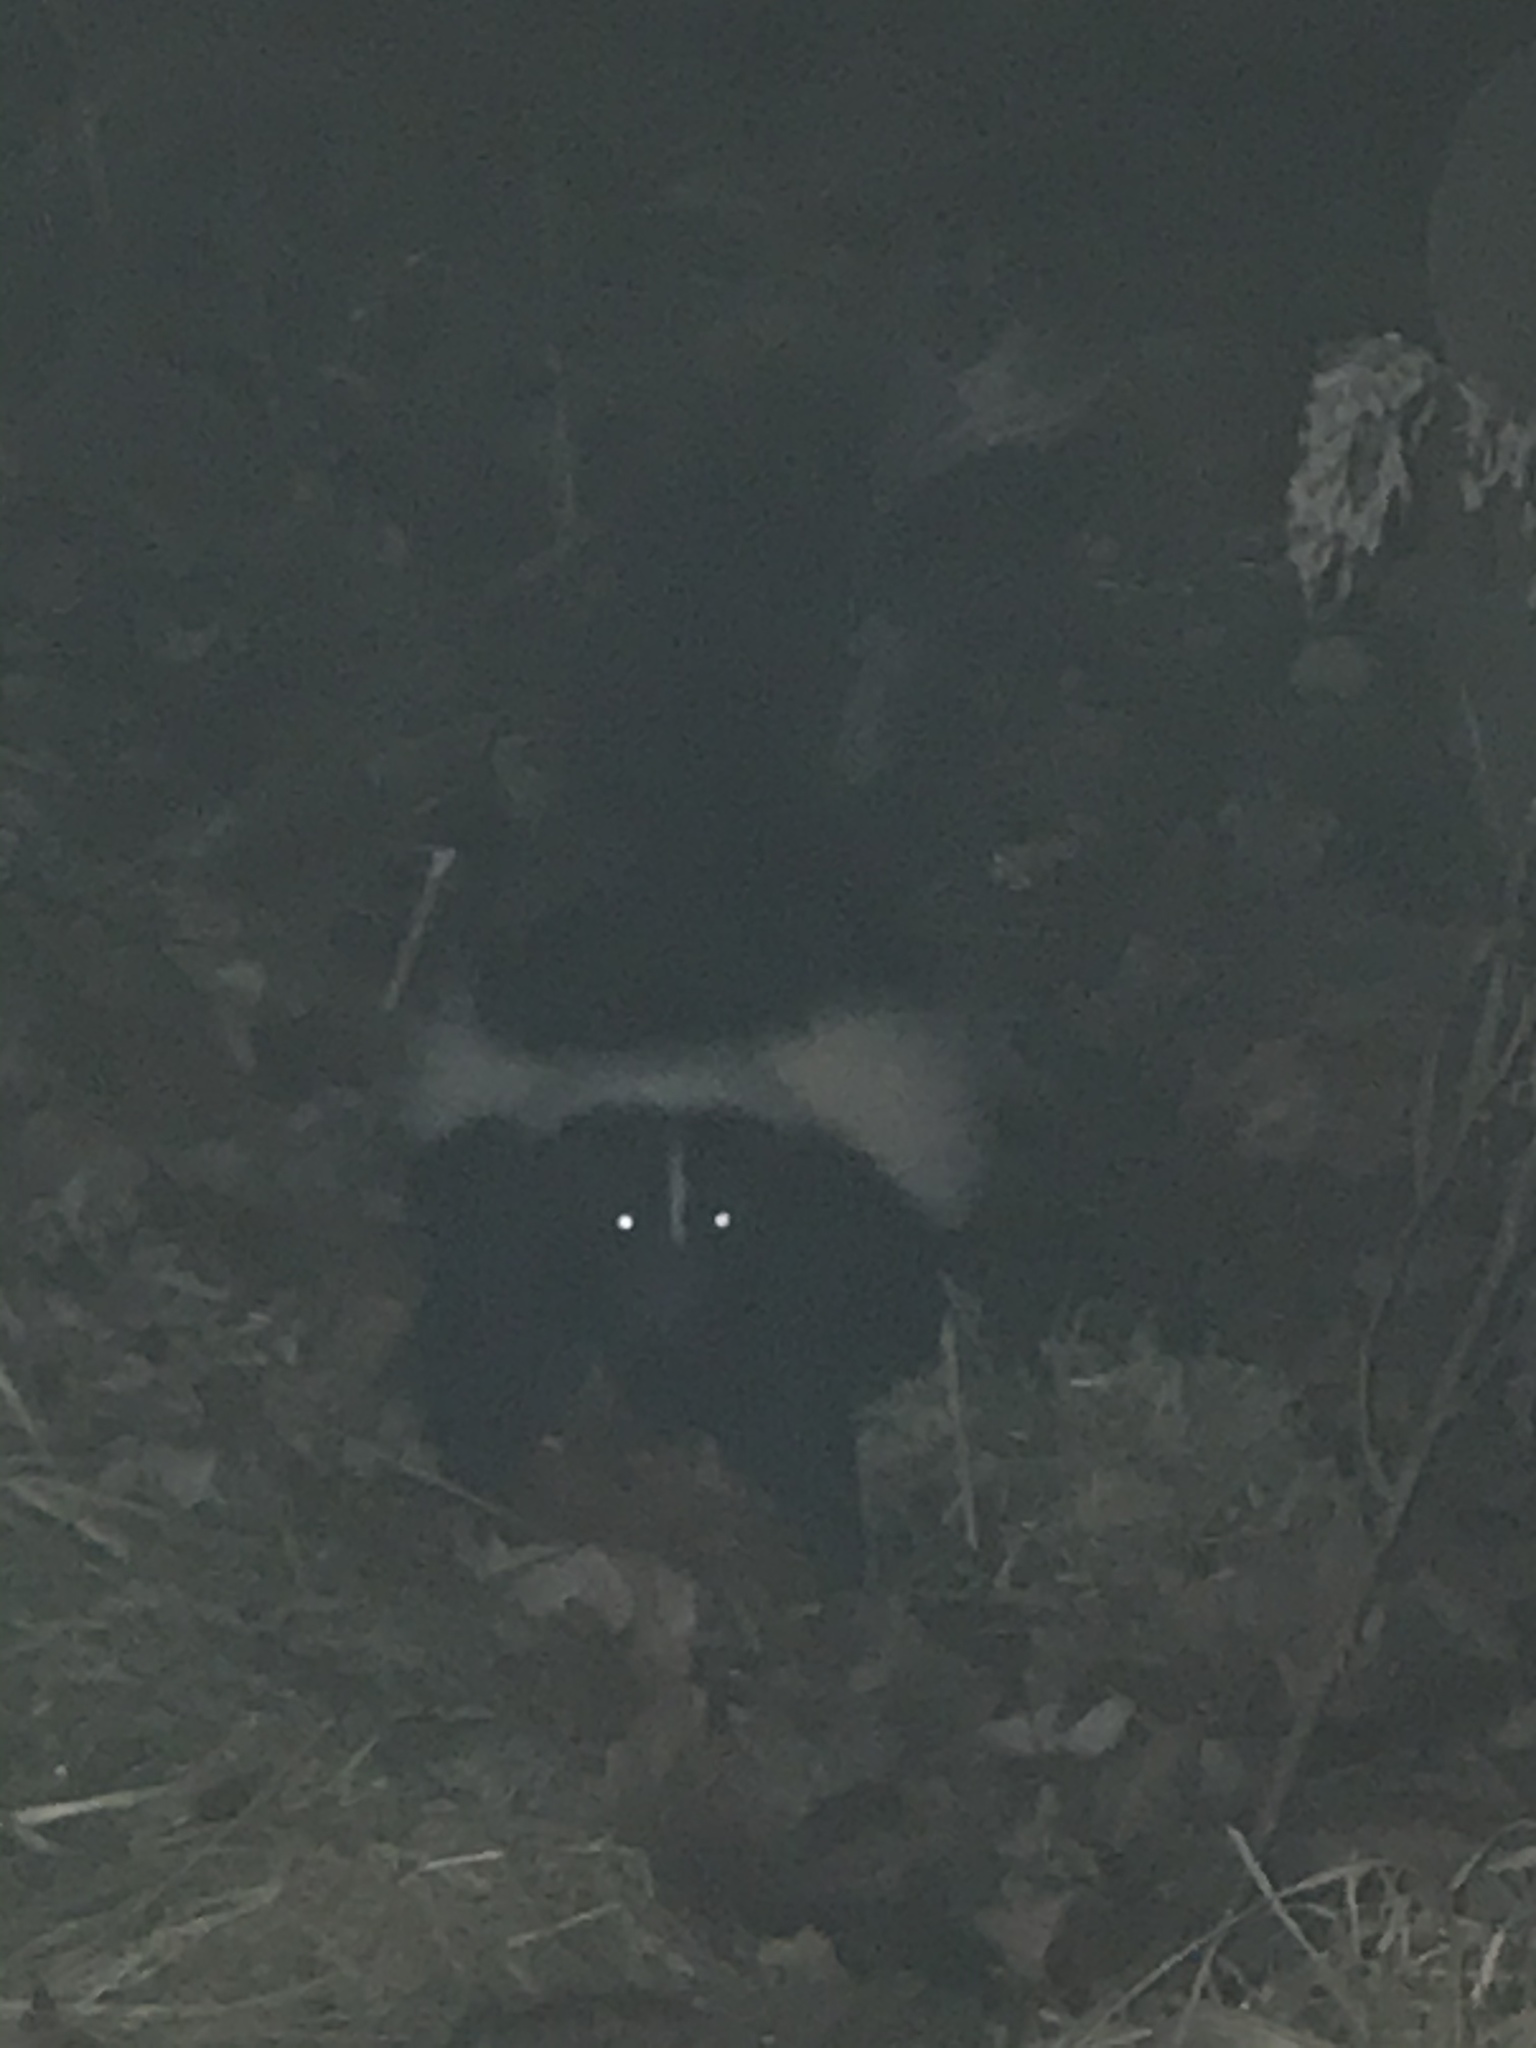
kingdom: Animalia
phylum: Chordata
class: Mammalia
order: Carnivora
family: Mephitidae
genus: Mephitis
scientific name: Mephitis mephitis
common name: Striped skunk
